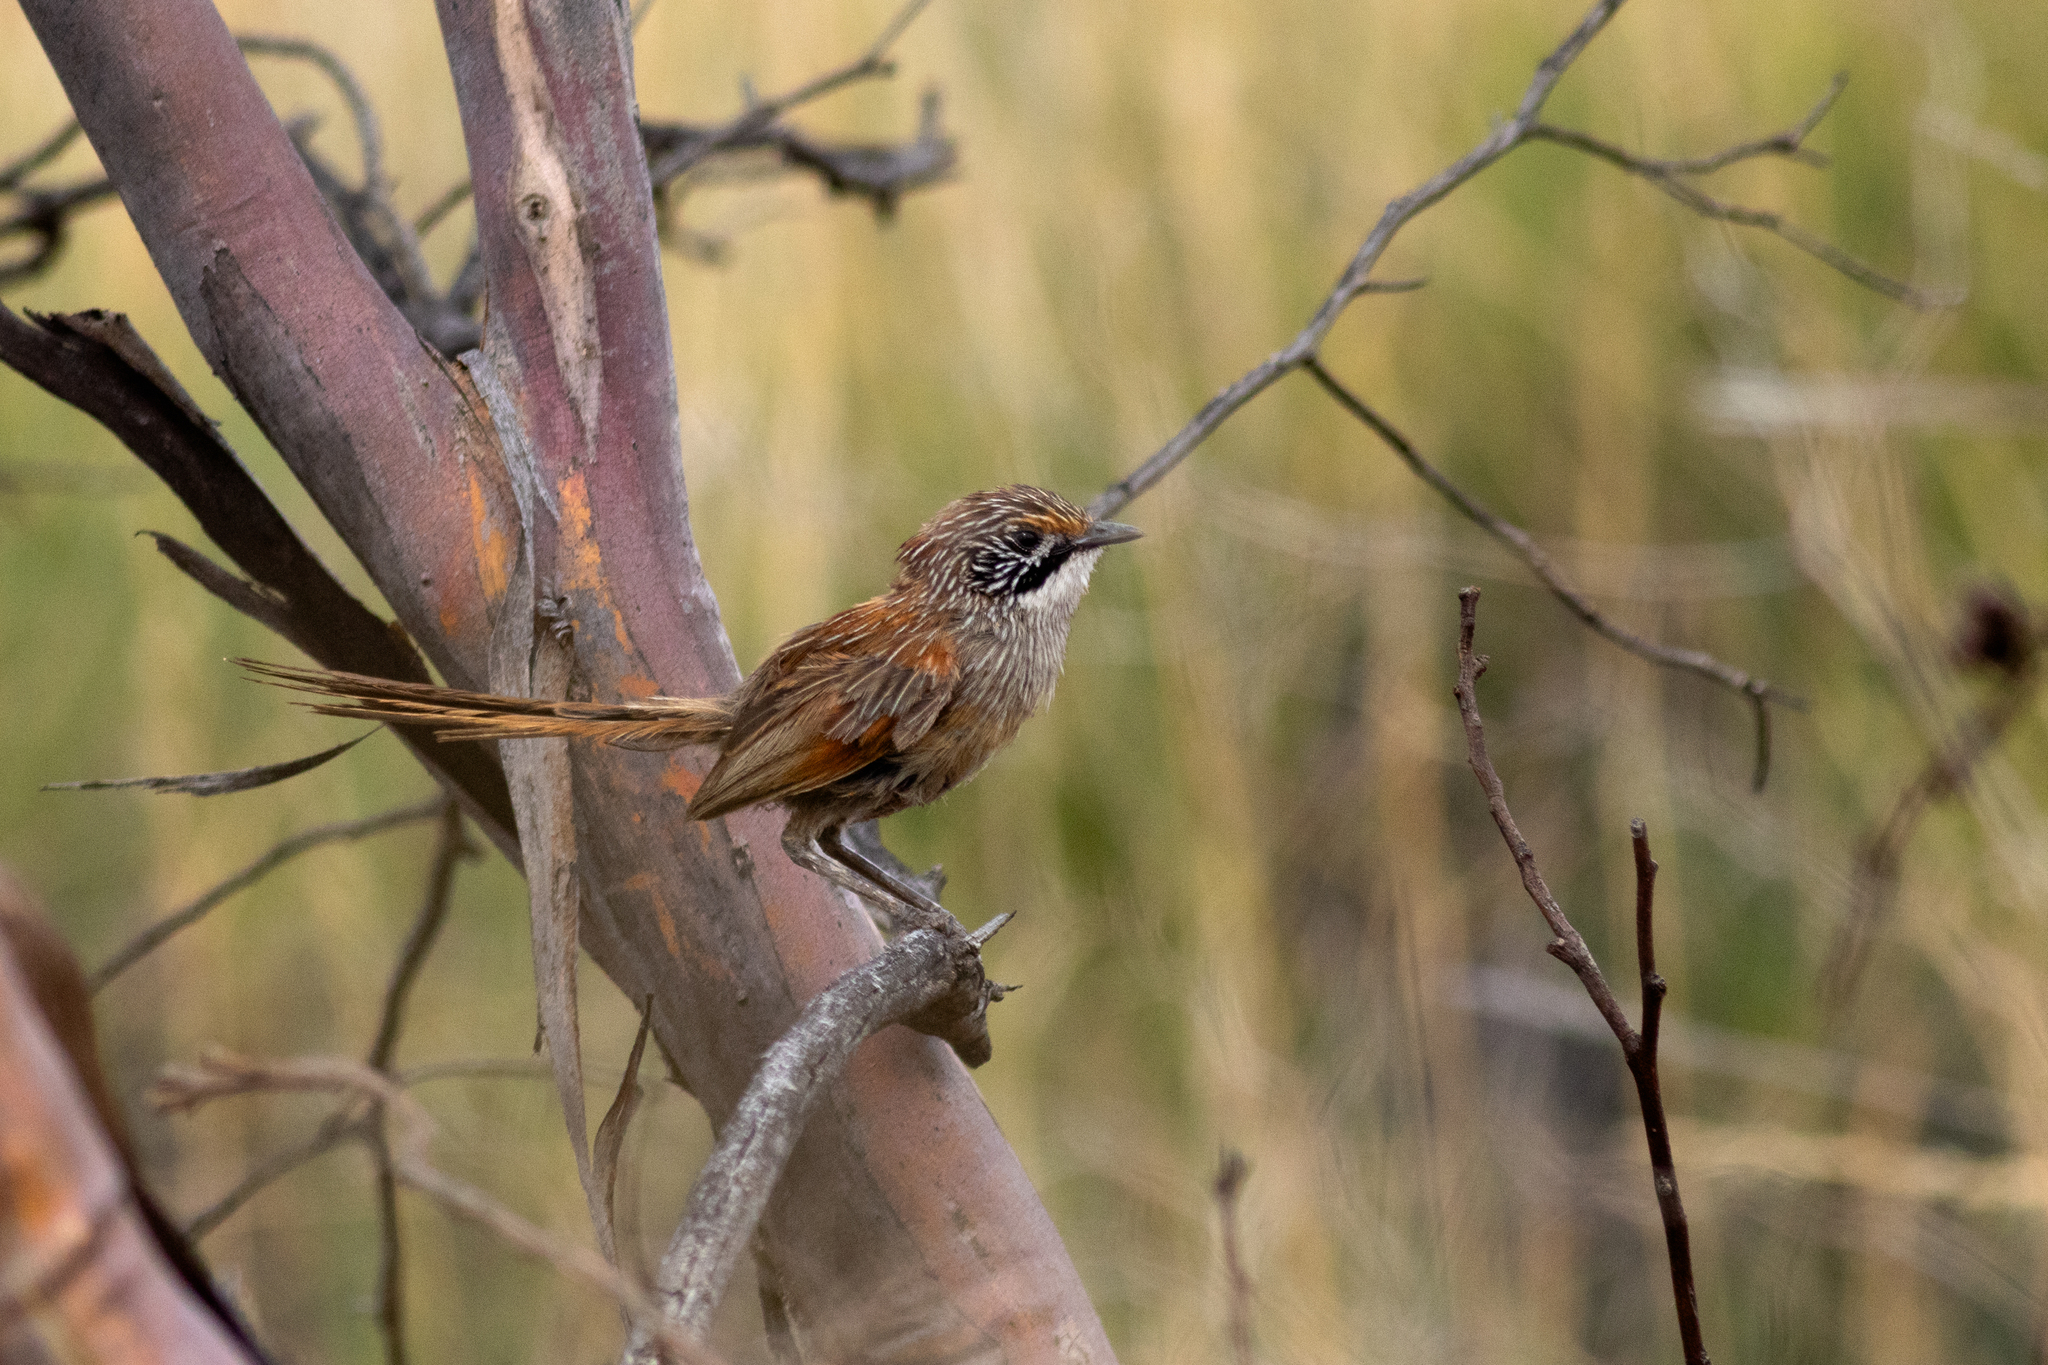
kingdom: Animalia
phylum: Chordata
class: Aves
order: Passeriformes
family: Maluridae
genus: Amytornis
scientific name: Amytornis striatus
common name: Striated grasswren
